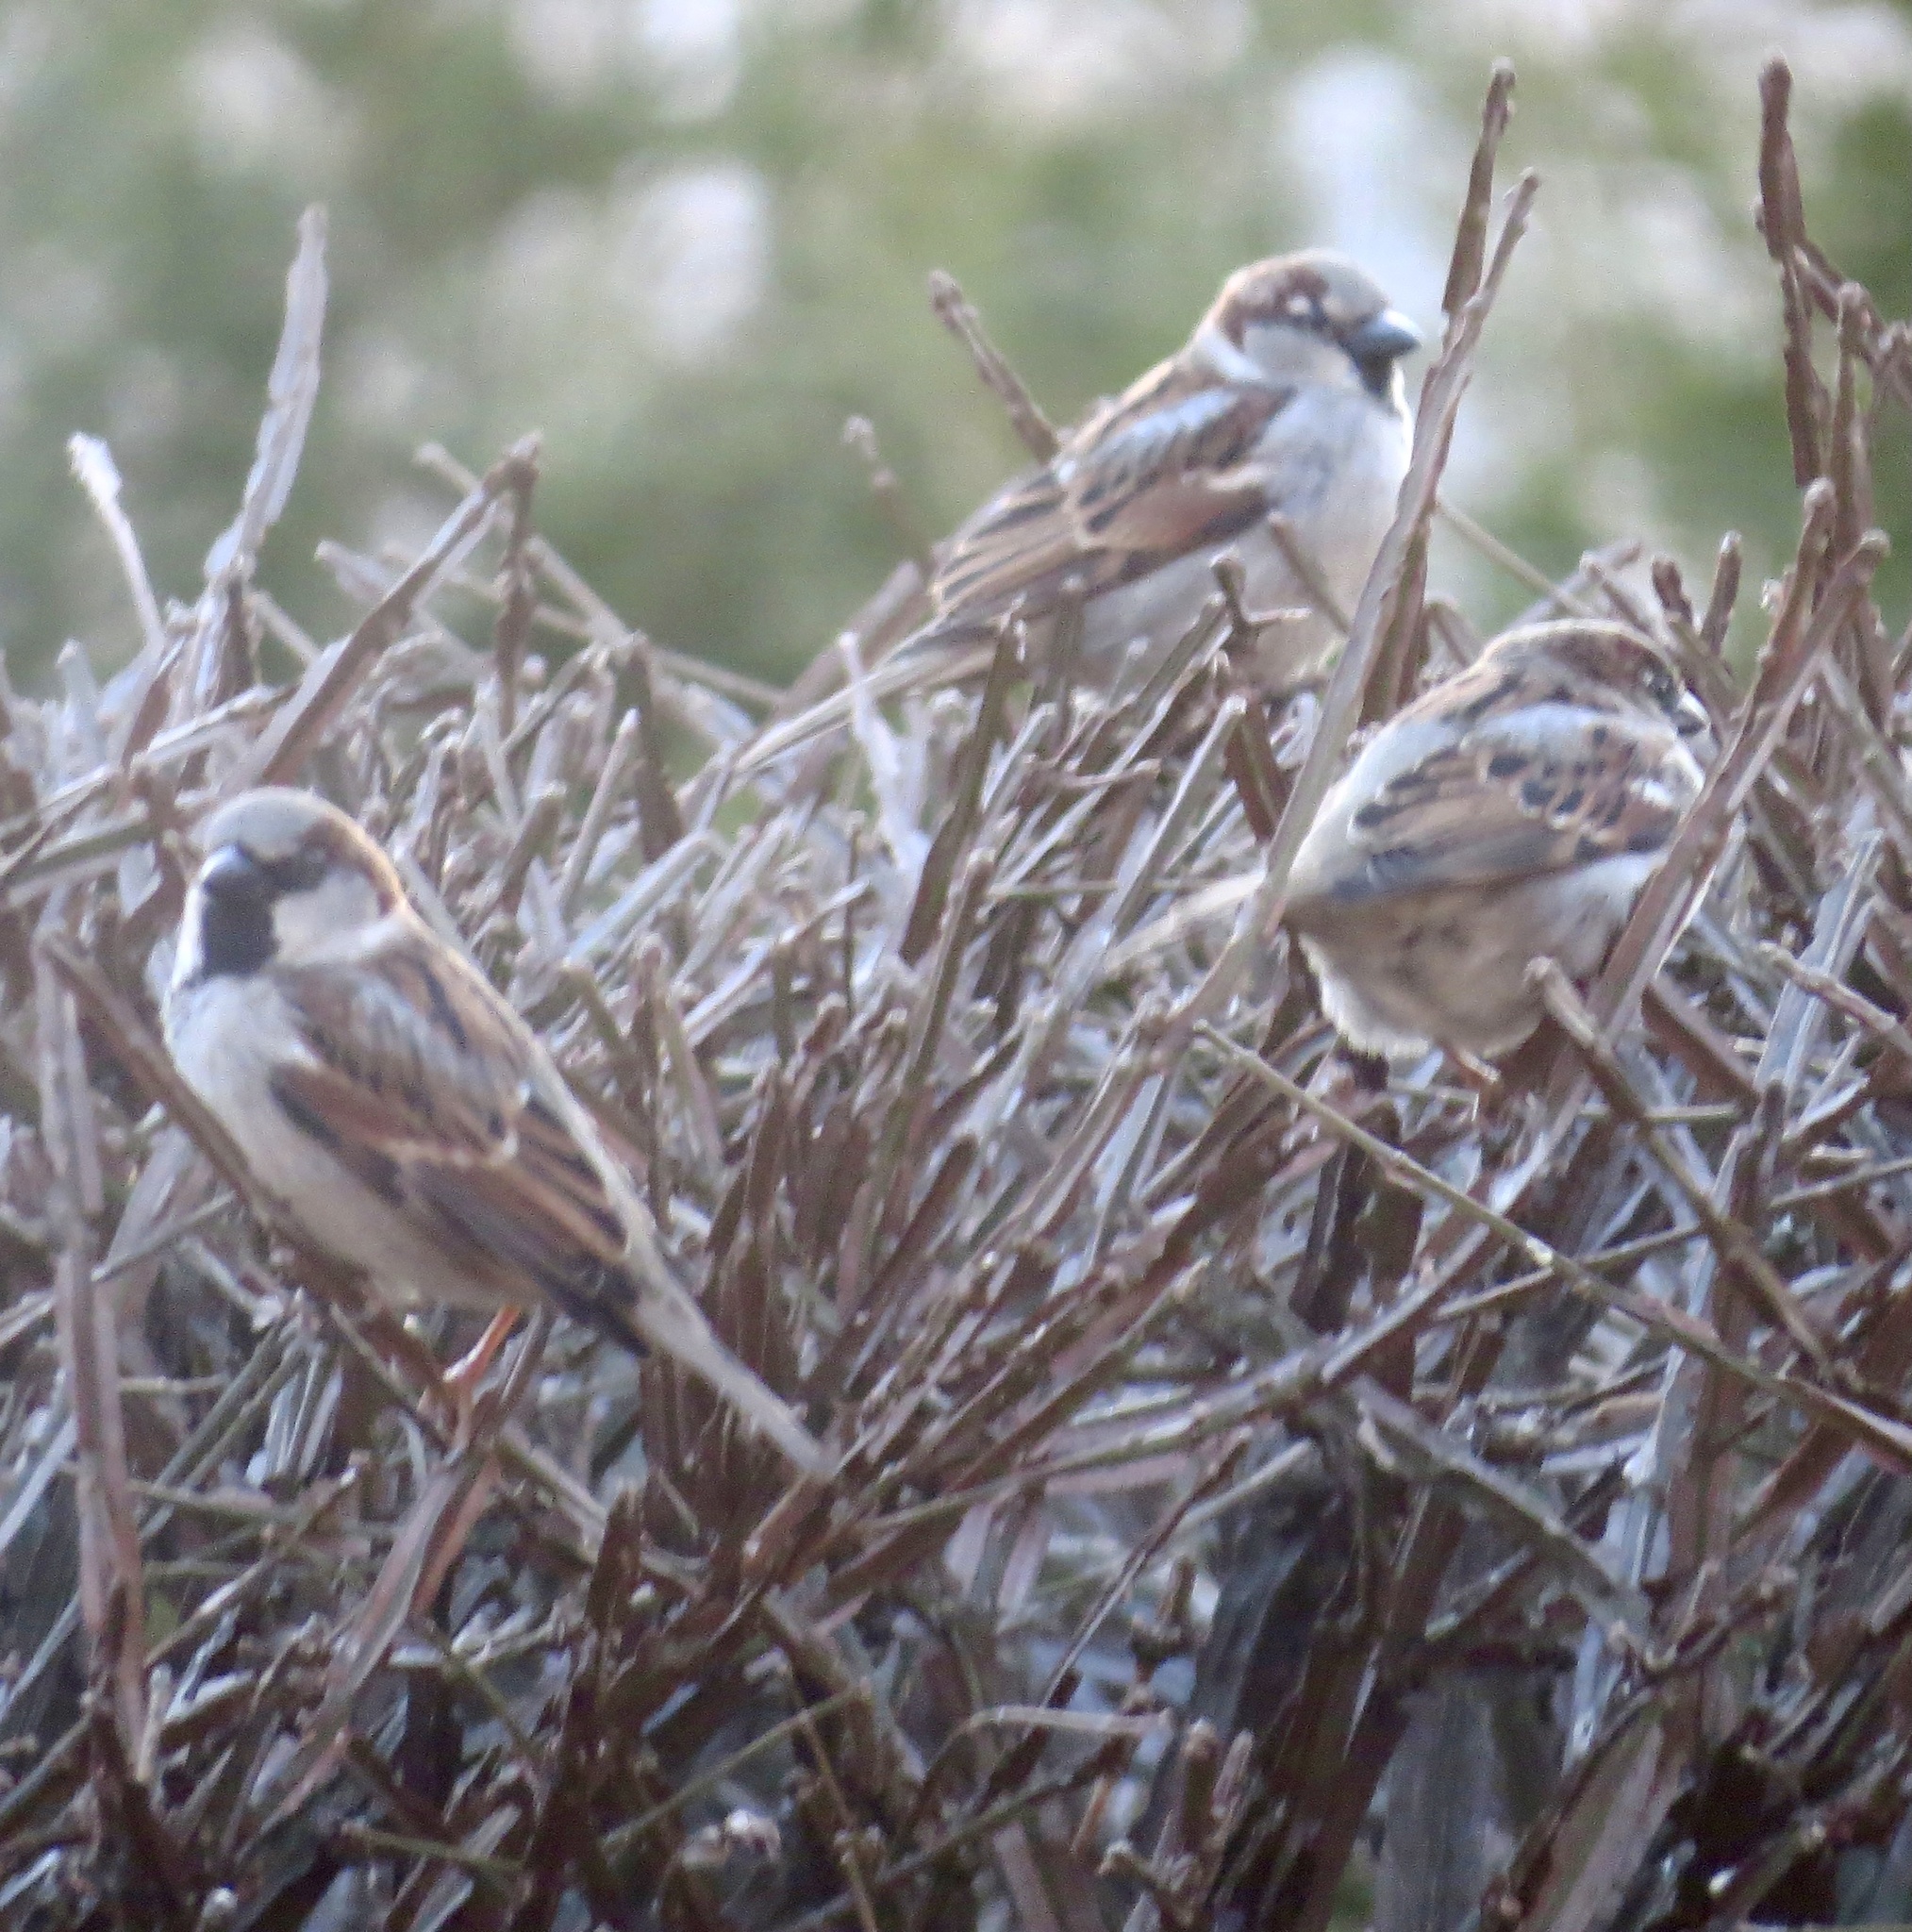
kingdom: Animalia
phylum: Chordata
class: Aves
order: Passeriformes
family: Passeridae
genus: Passer
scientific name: Passer domesticus
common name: House sparrow
